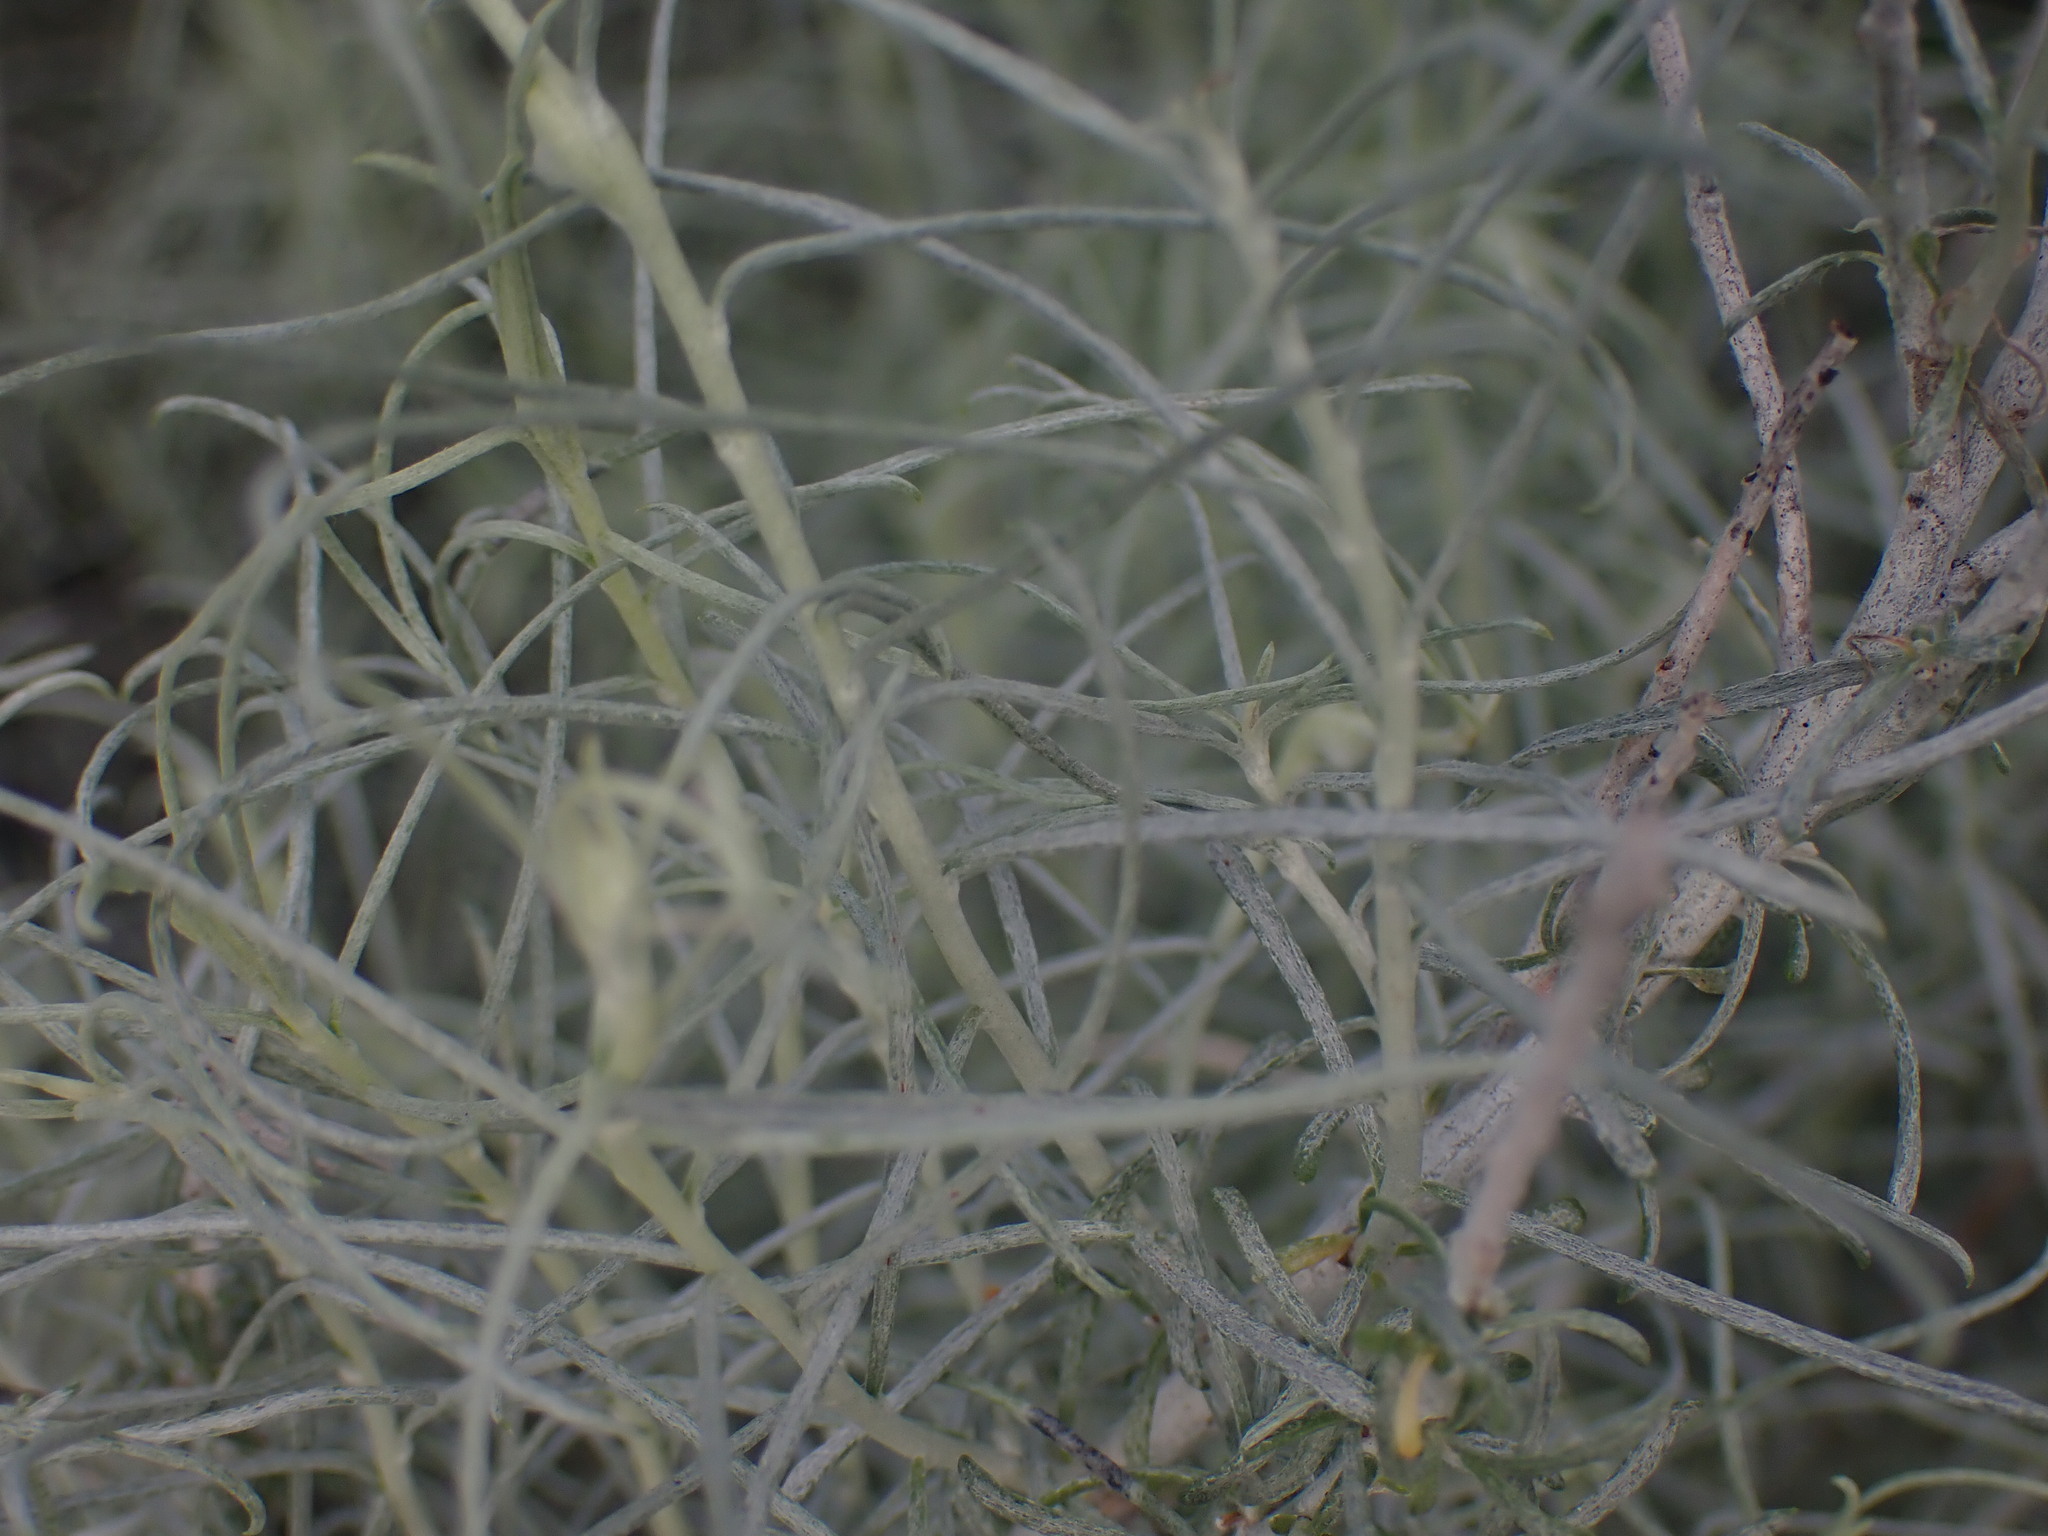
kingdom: Plantae
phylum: Tracheophyta
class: Magnoliopsida
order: Asterales
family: Asteraceae
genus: Ericameria
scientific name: Ericameria nauseosa
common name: Rubber rabbitbrush
